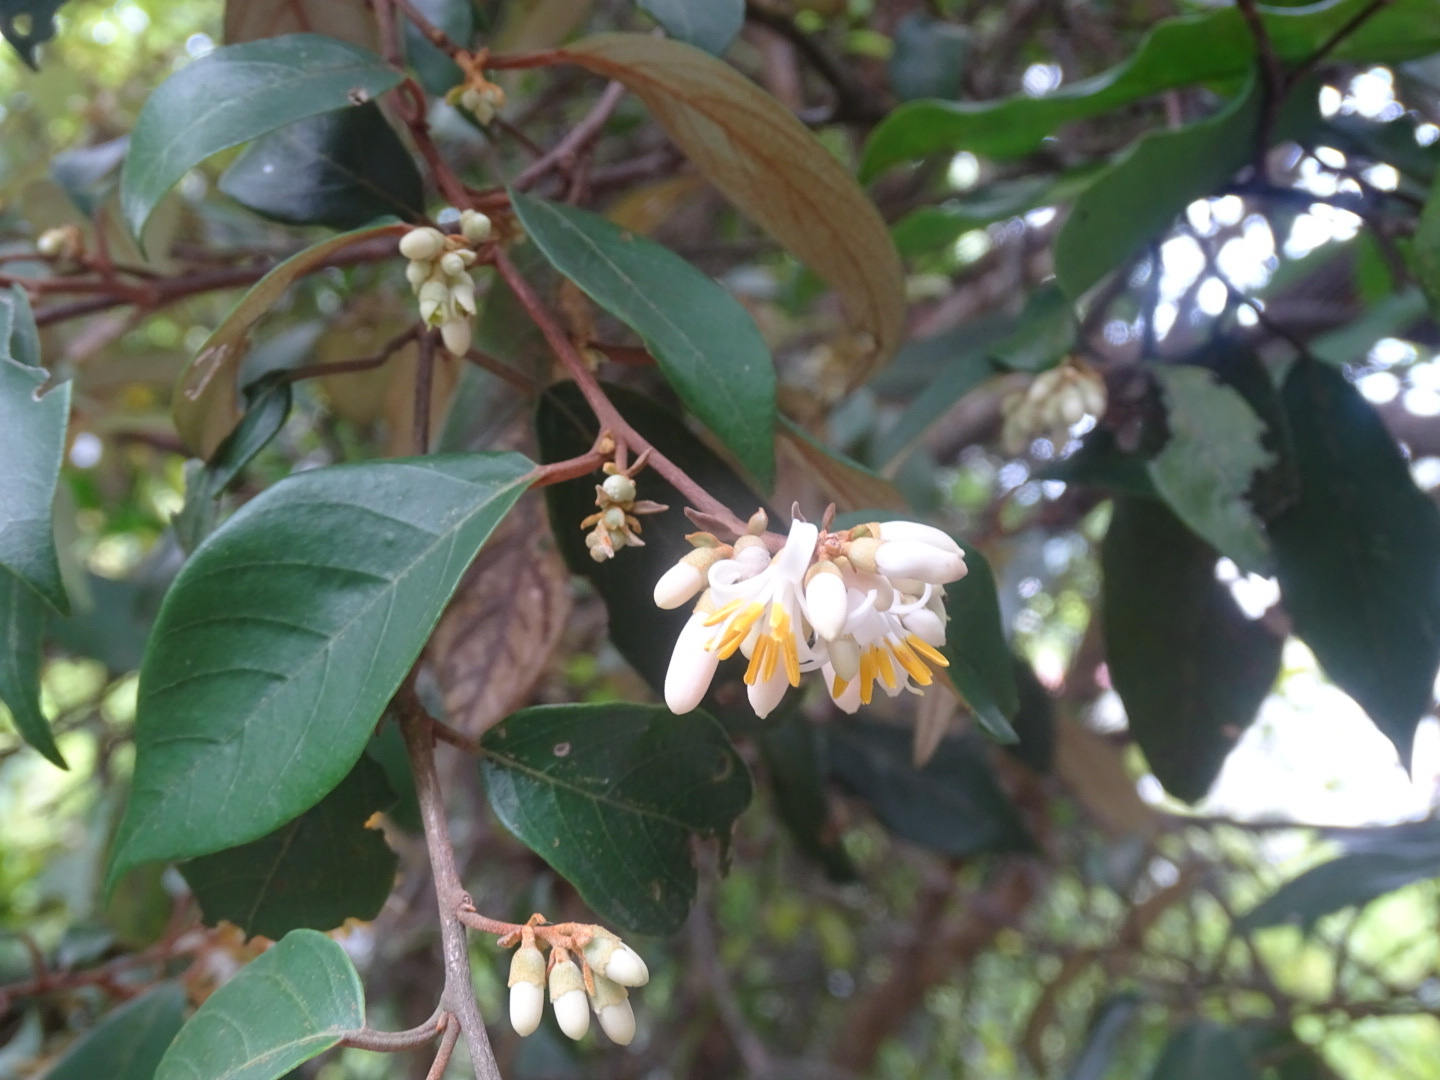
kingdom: Plantae
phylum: Tracheophyta
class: Magnoliopsida
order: Ericales
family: Styracaceae
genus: Styrax
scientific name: Styrax suberifolius
